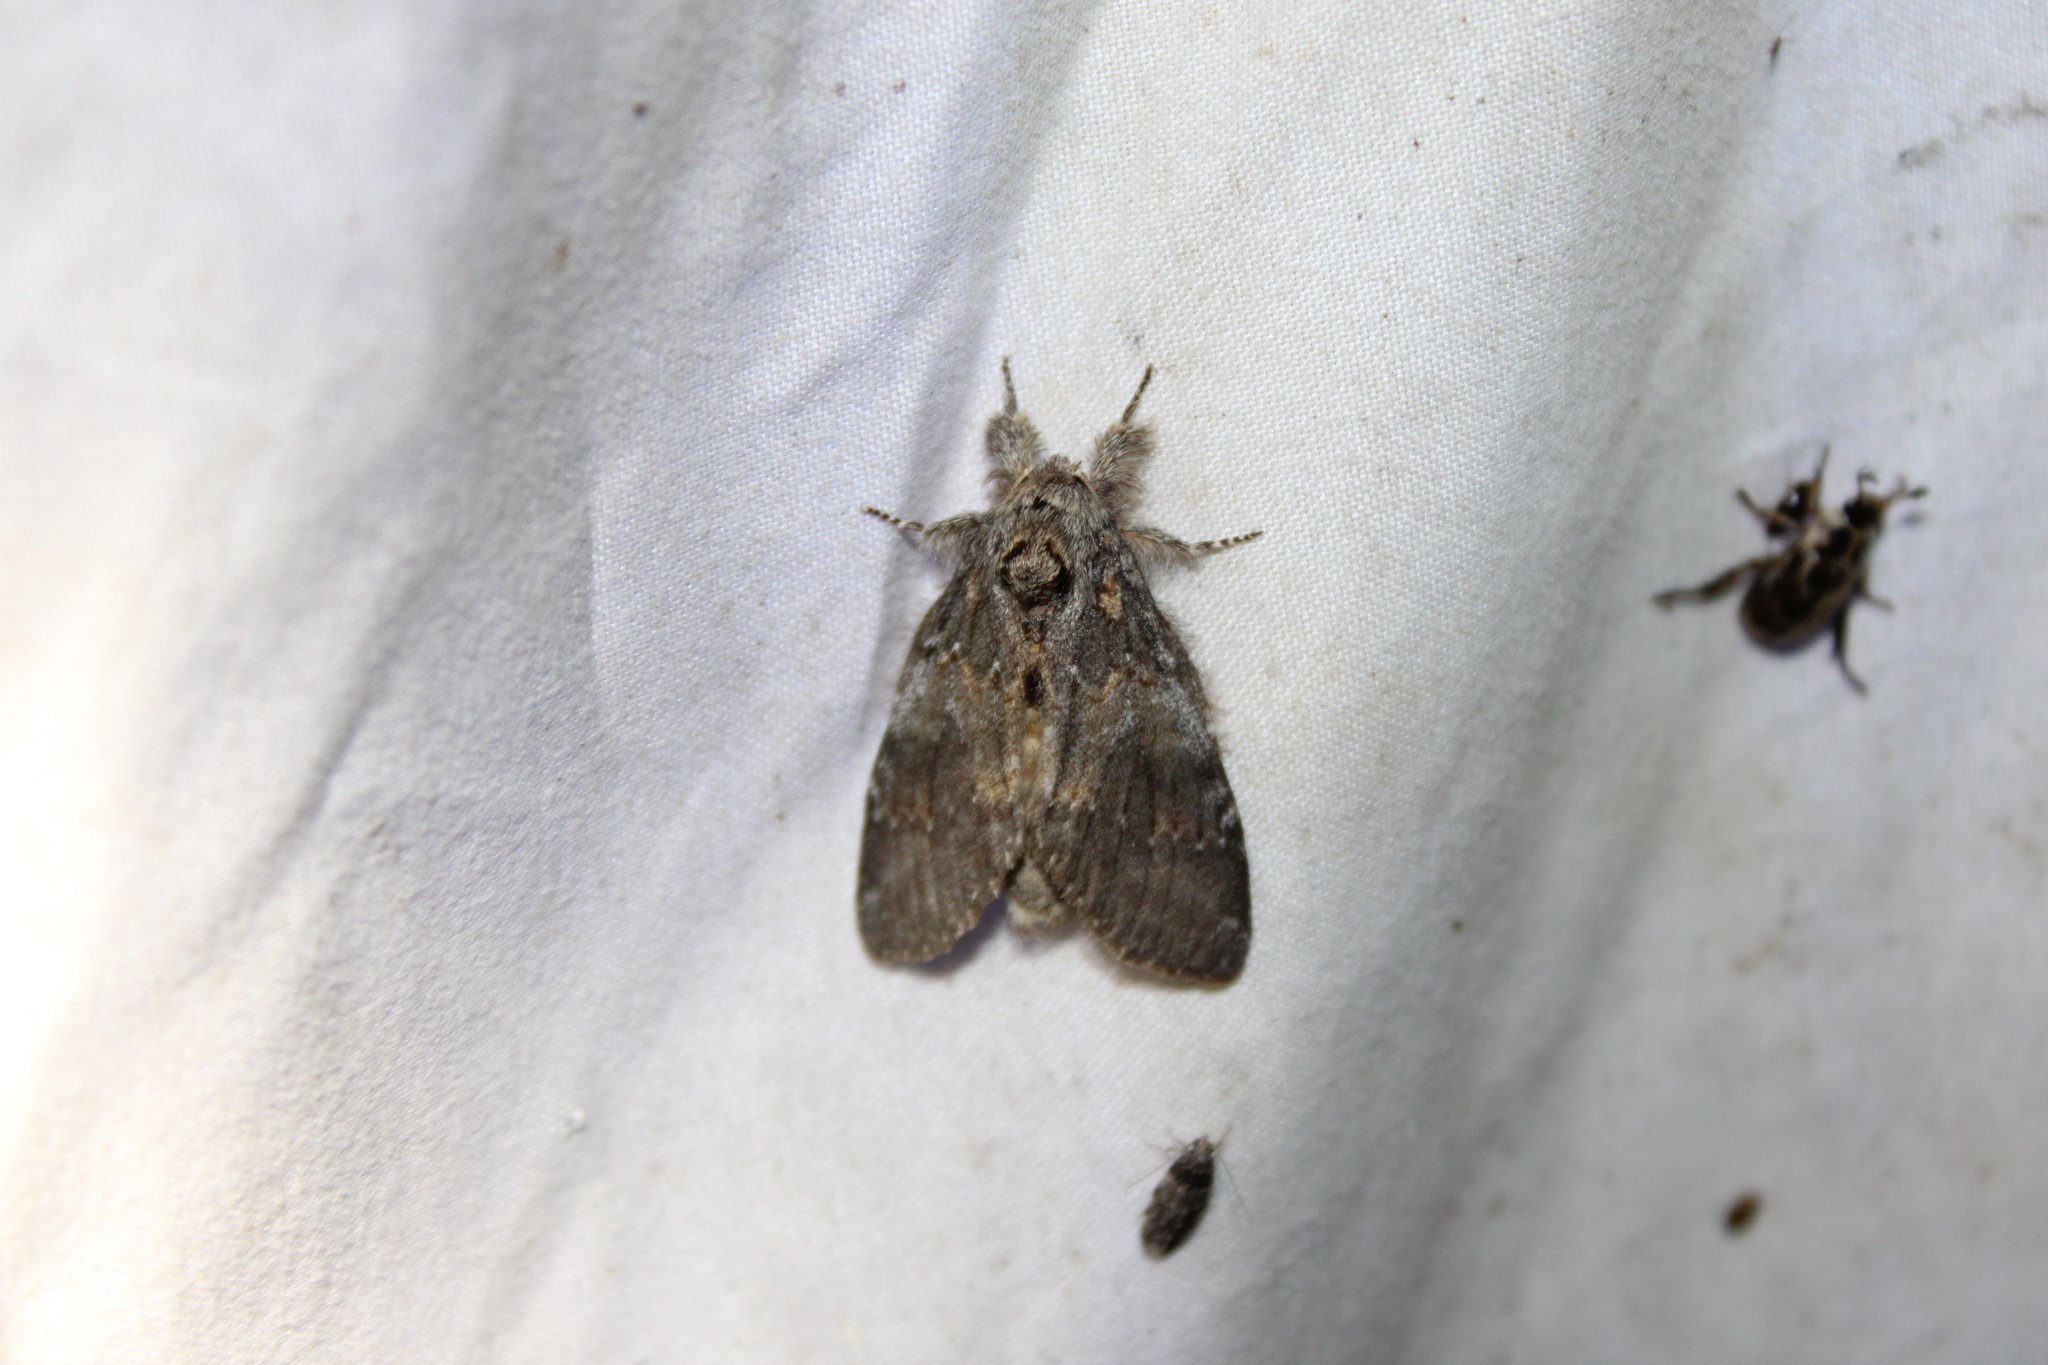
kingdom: Animalia
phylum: Arthropoda
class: Insecta
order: Lepidoptera
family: Notodontidae
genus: Peridea
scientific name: Peridea angulosa
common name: Angulose prominent
